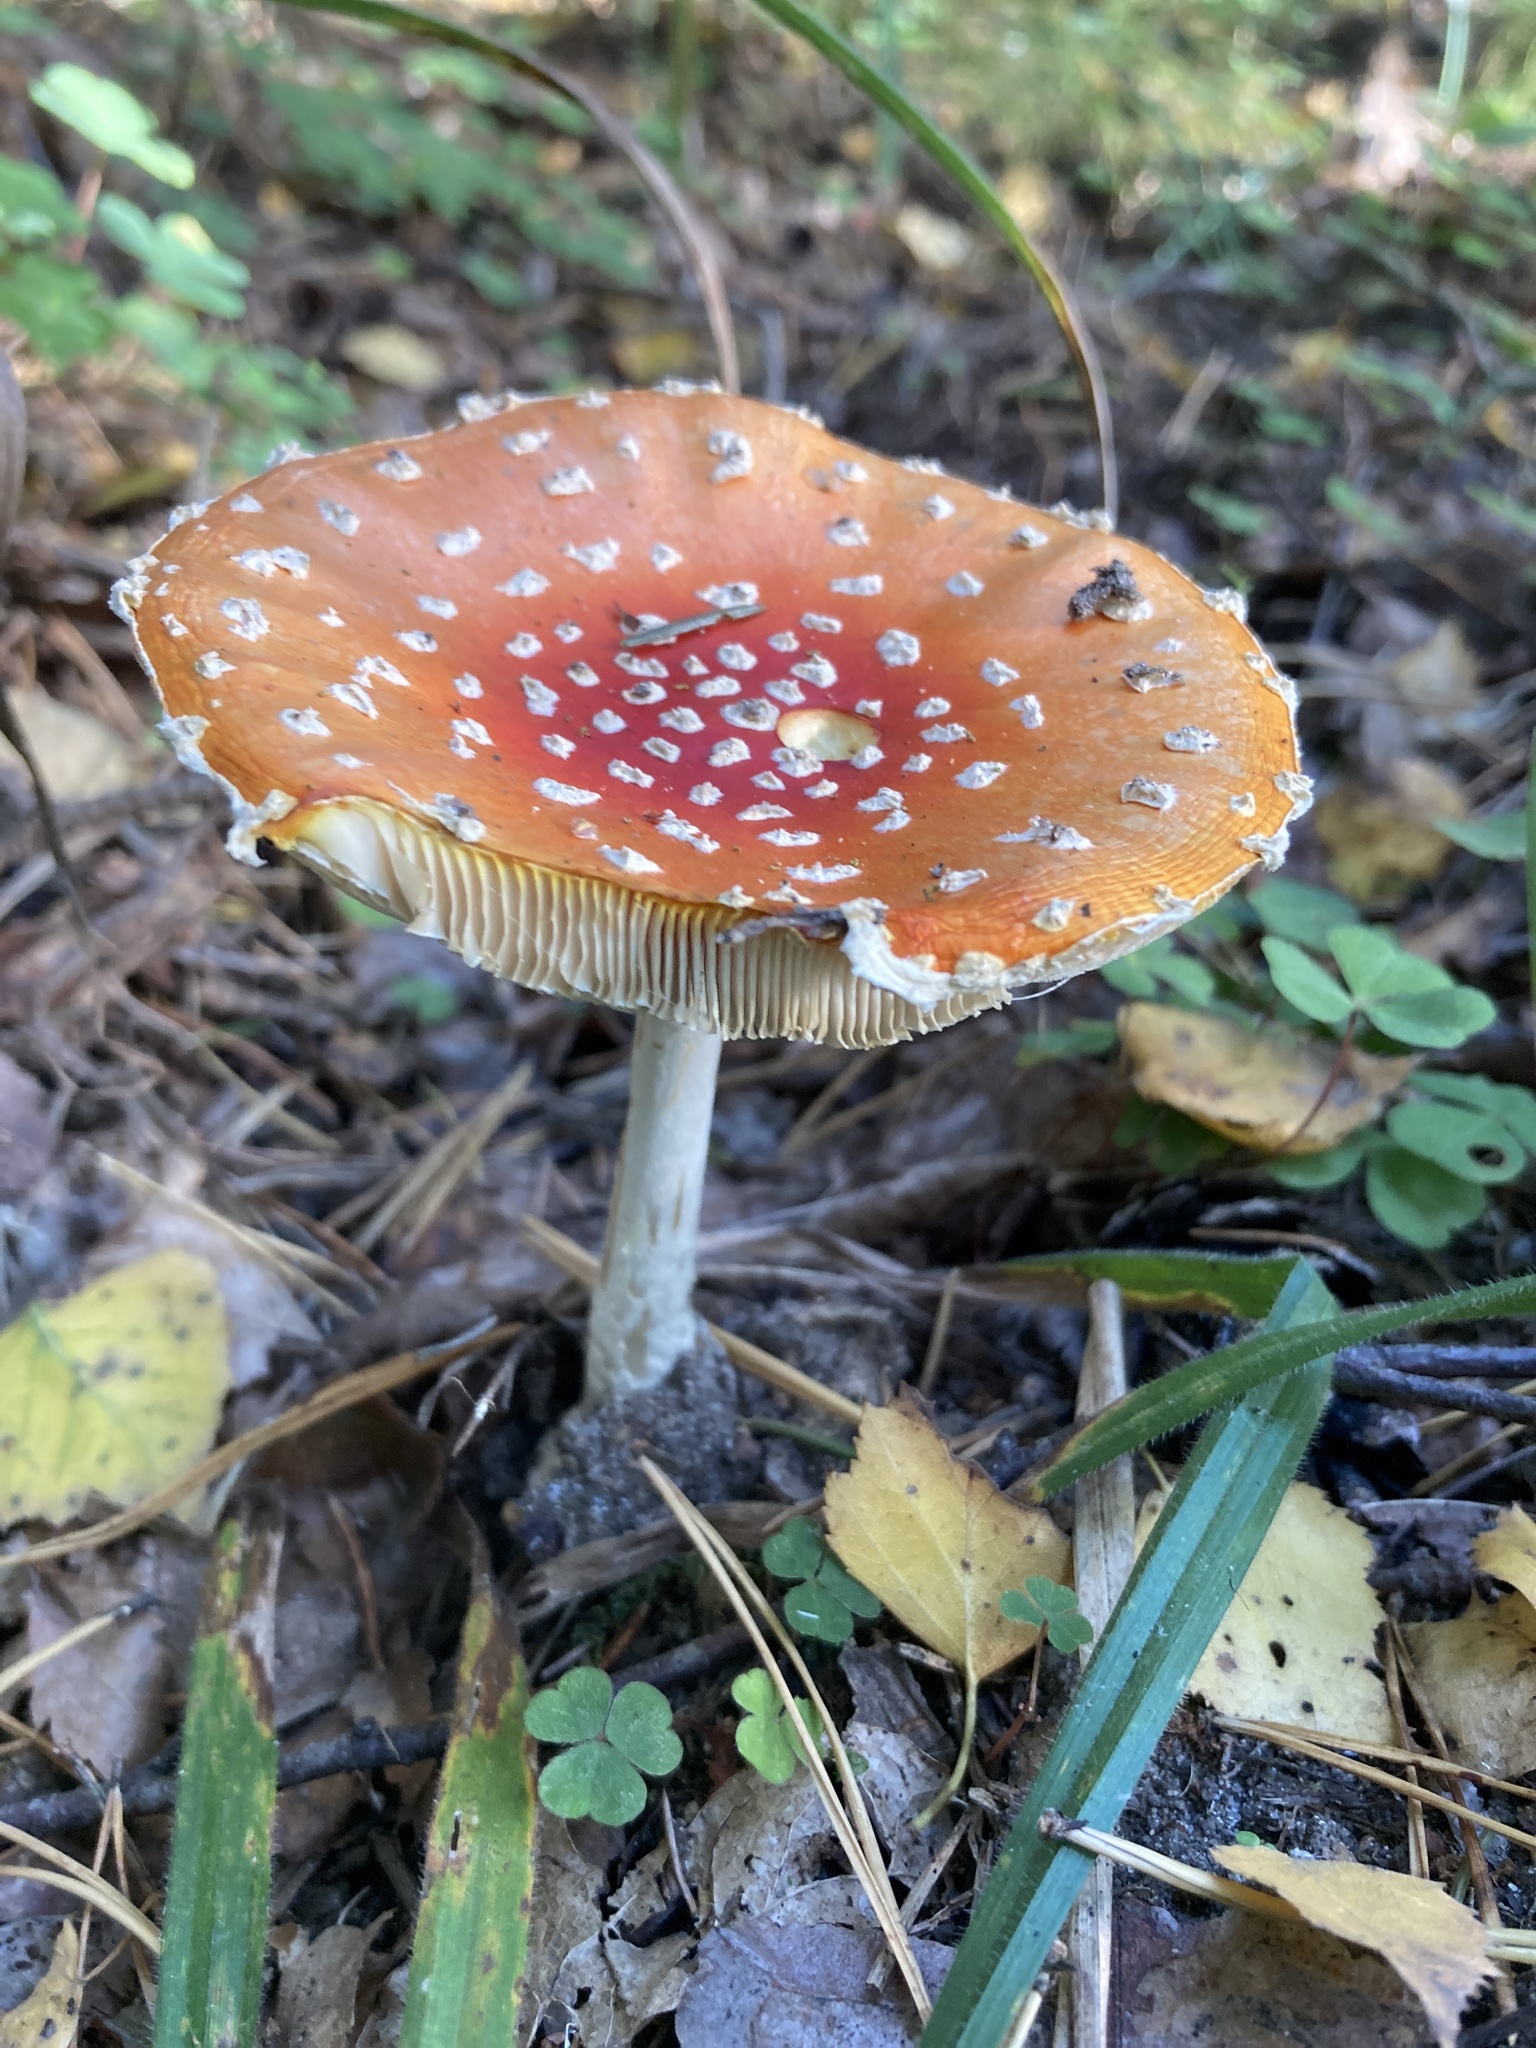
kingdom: Fungi
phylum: Basidiomycota
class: Agaricomycetes
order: Agaricales
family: Amanitaceae
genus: Amanita
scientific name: Amanita muscaria
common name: Fly agaric
